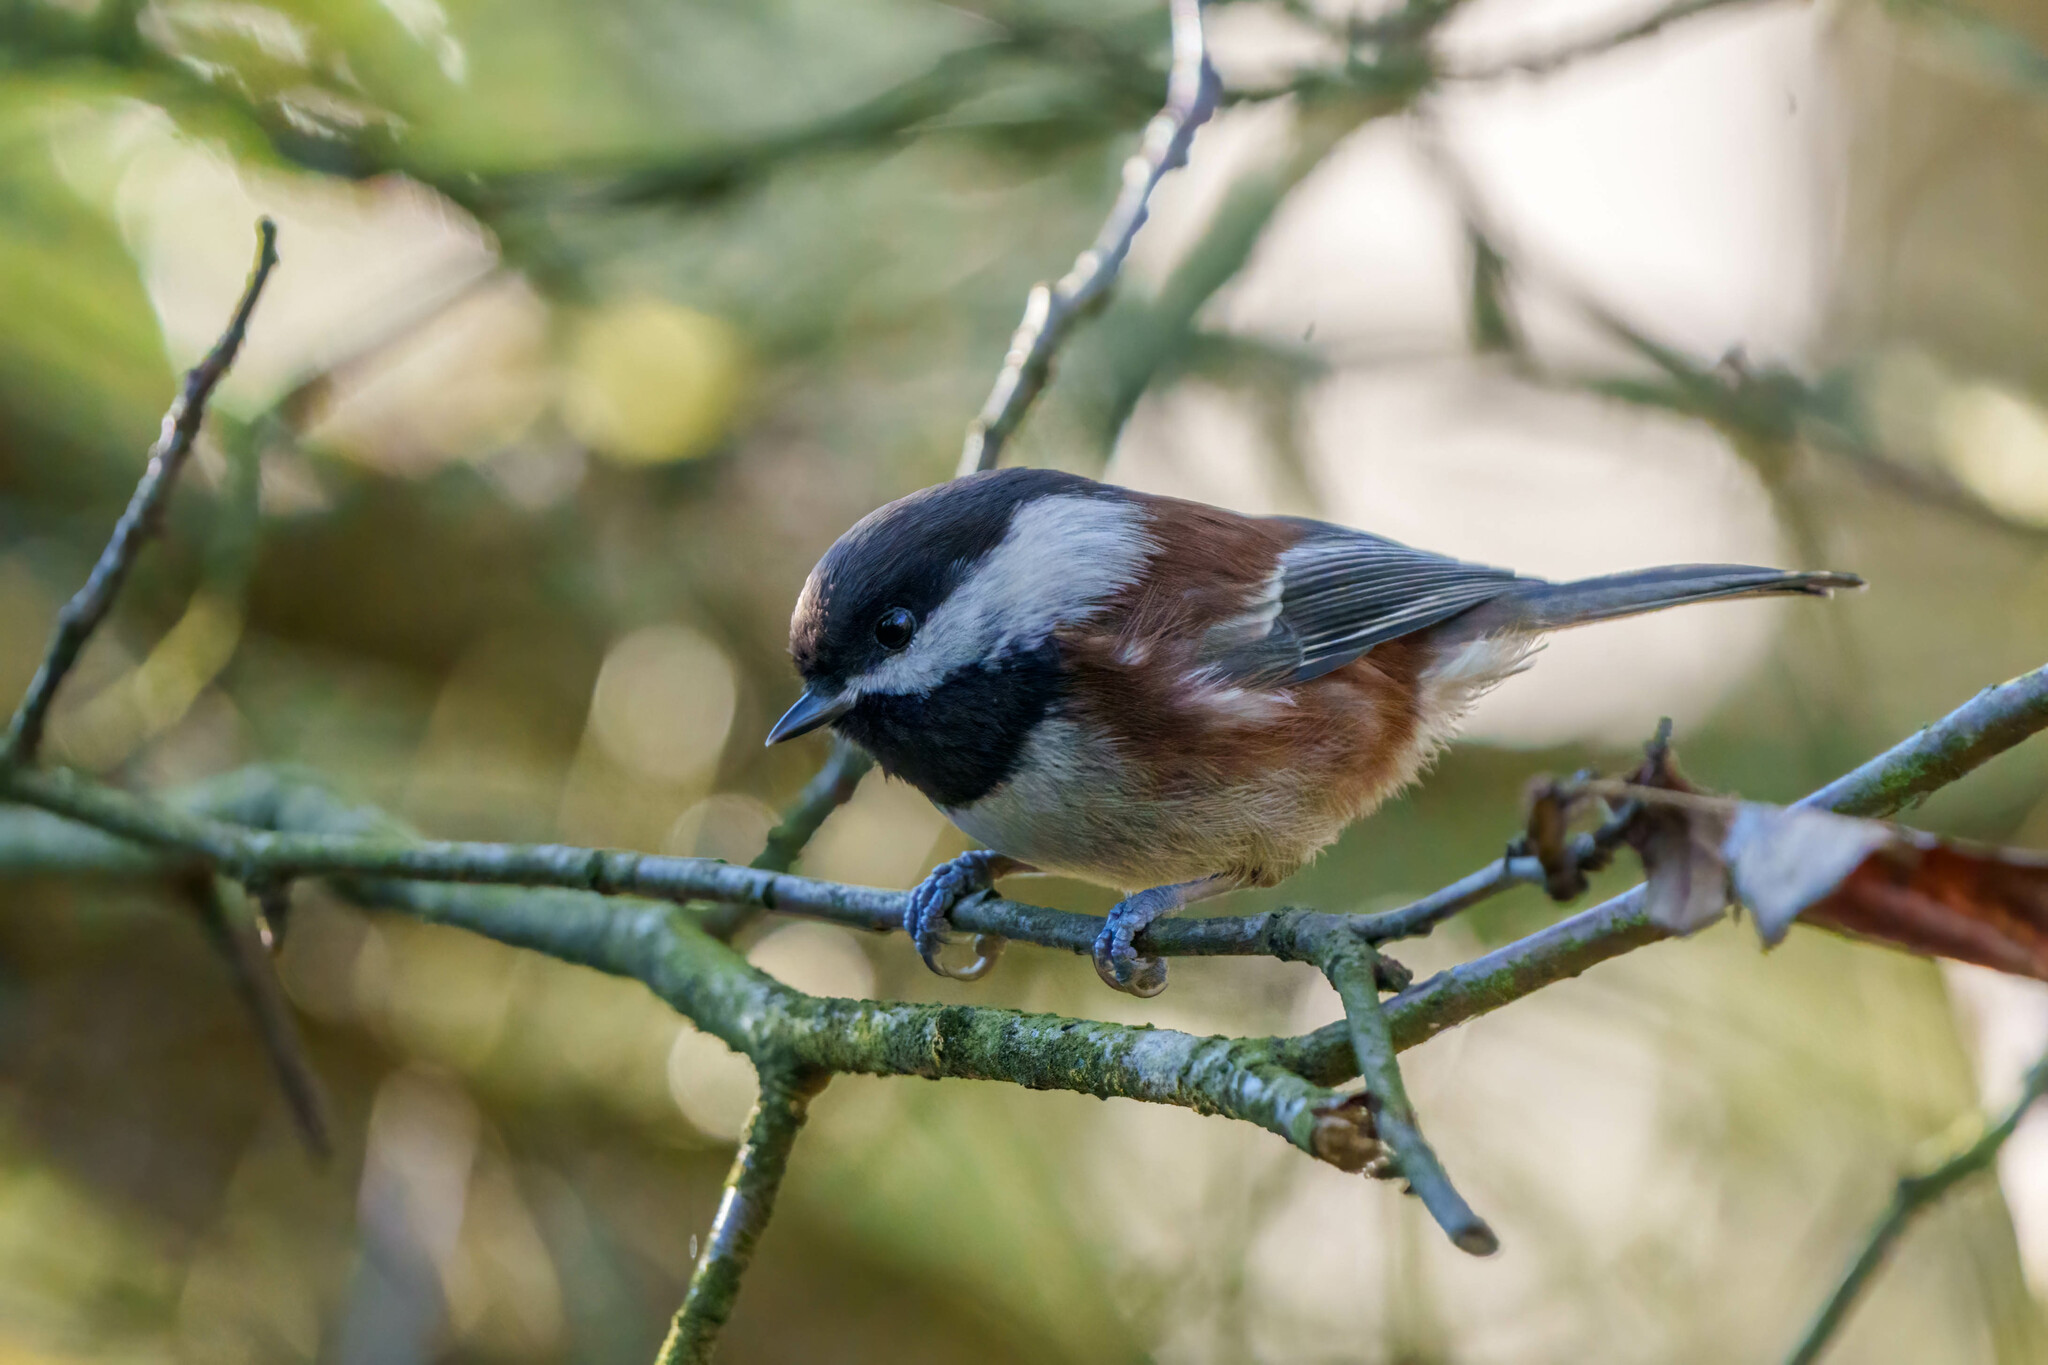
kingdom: Animalia
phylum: Chordata
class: Aves
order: Passeriformes
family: Paridae
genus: Poecile
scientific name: Poecile rufescens
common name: Chestnut-backed chickadee
